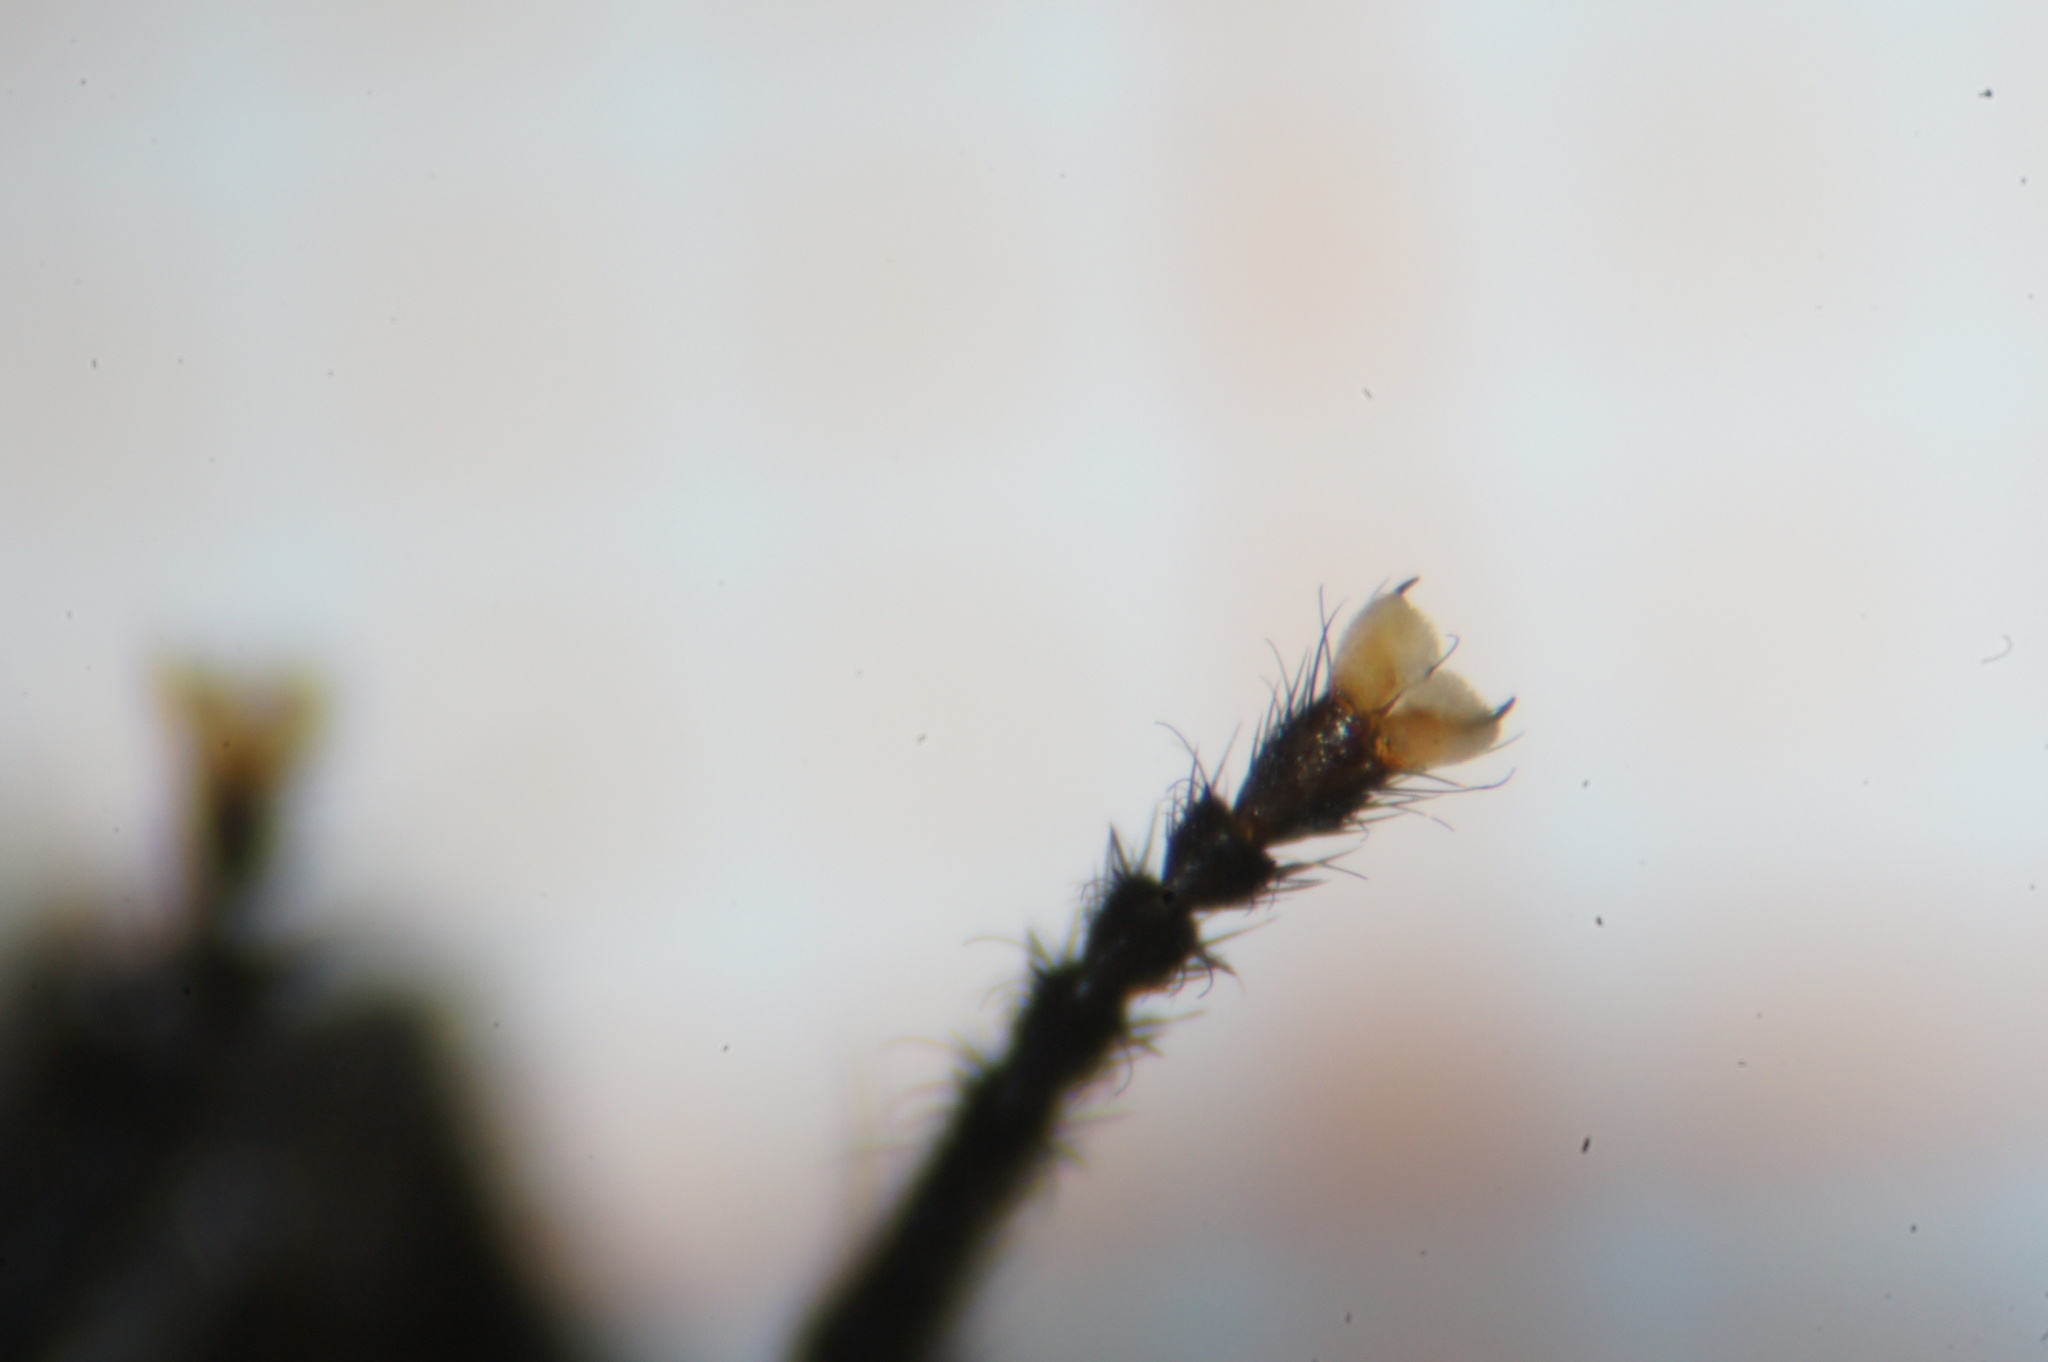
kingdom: Animalia
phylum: Arthropoda
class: Insecta
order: Diptera
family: Muscidae
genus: Mesembrina
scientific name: Mesembrina meridiana
